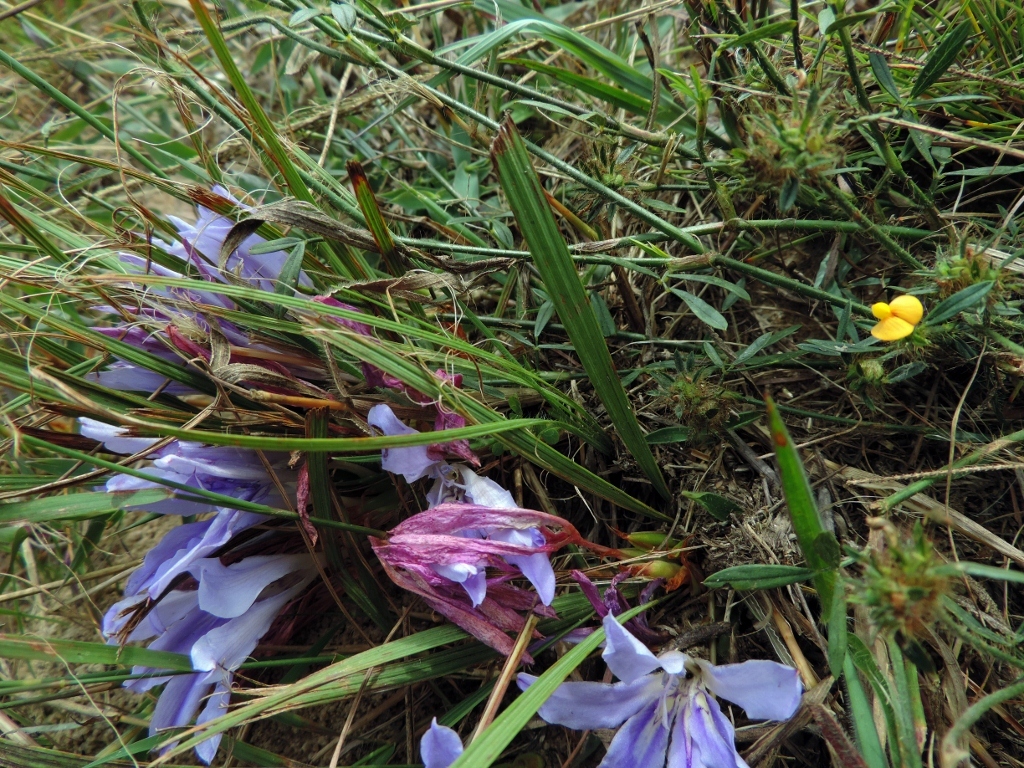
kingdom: Plantae
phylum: Tracheophyta
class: Liliopsida
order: Asparagales
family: Iridaceae
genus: Babiana
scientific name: Babiana bainesii
